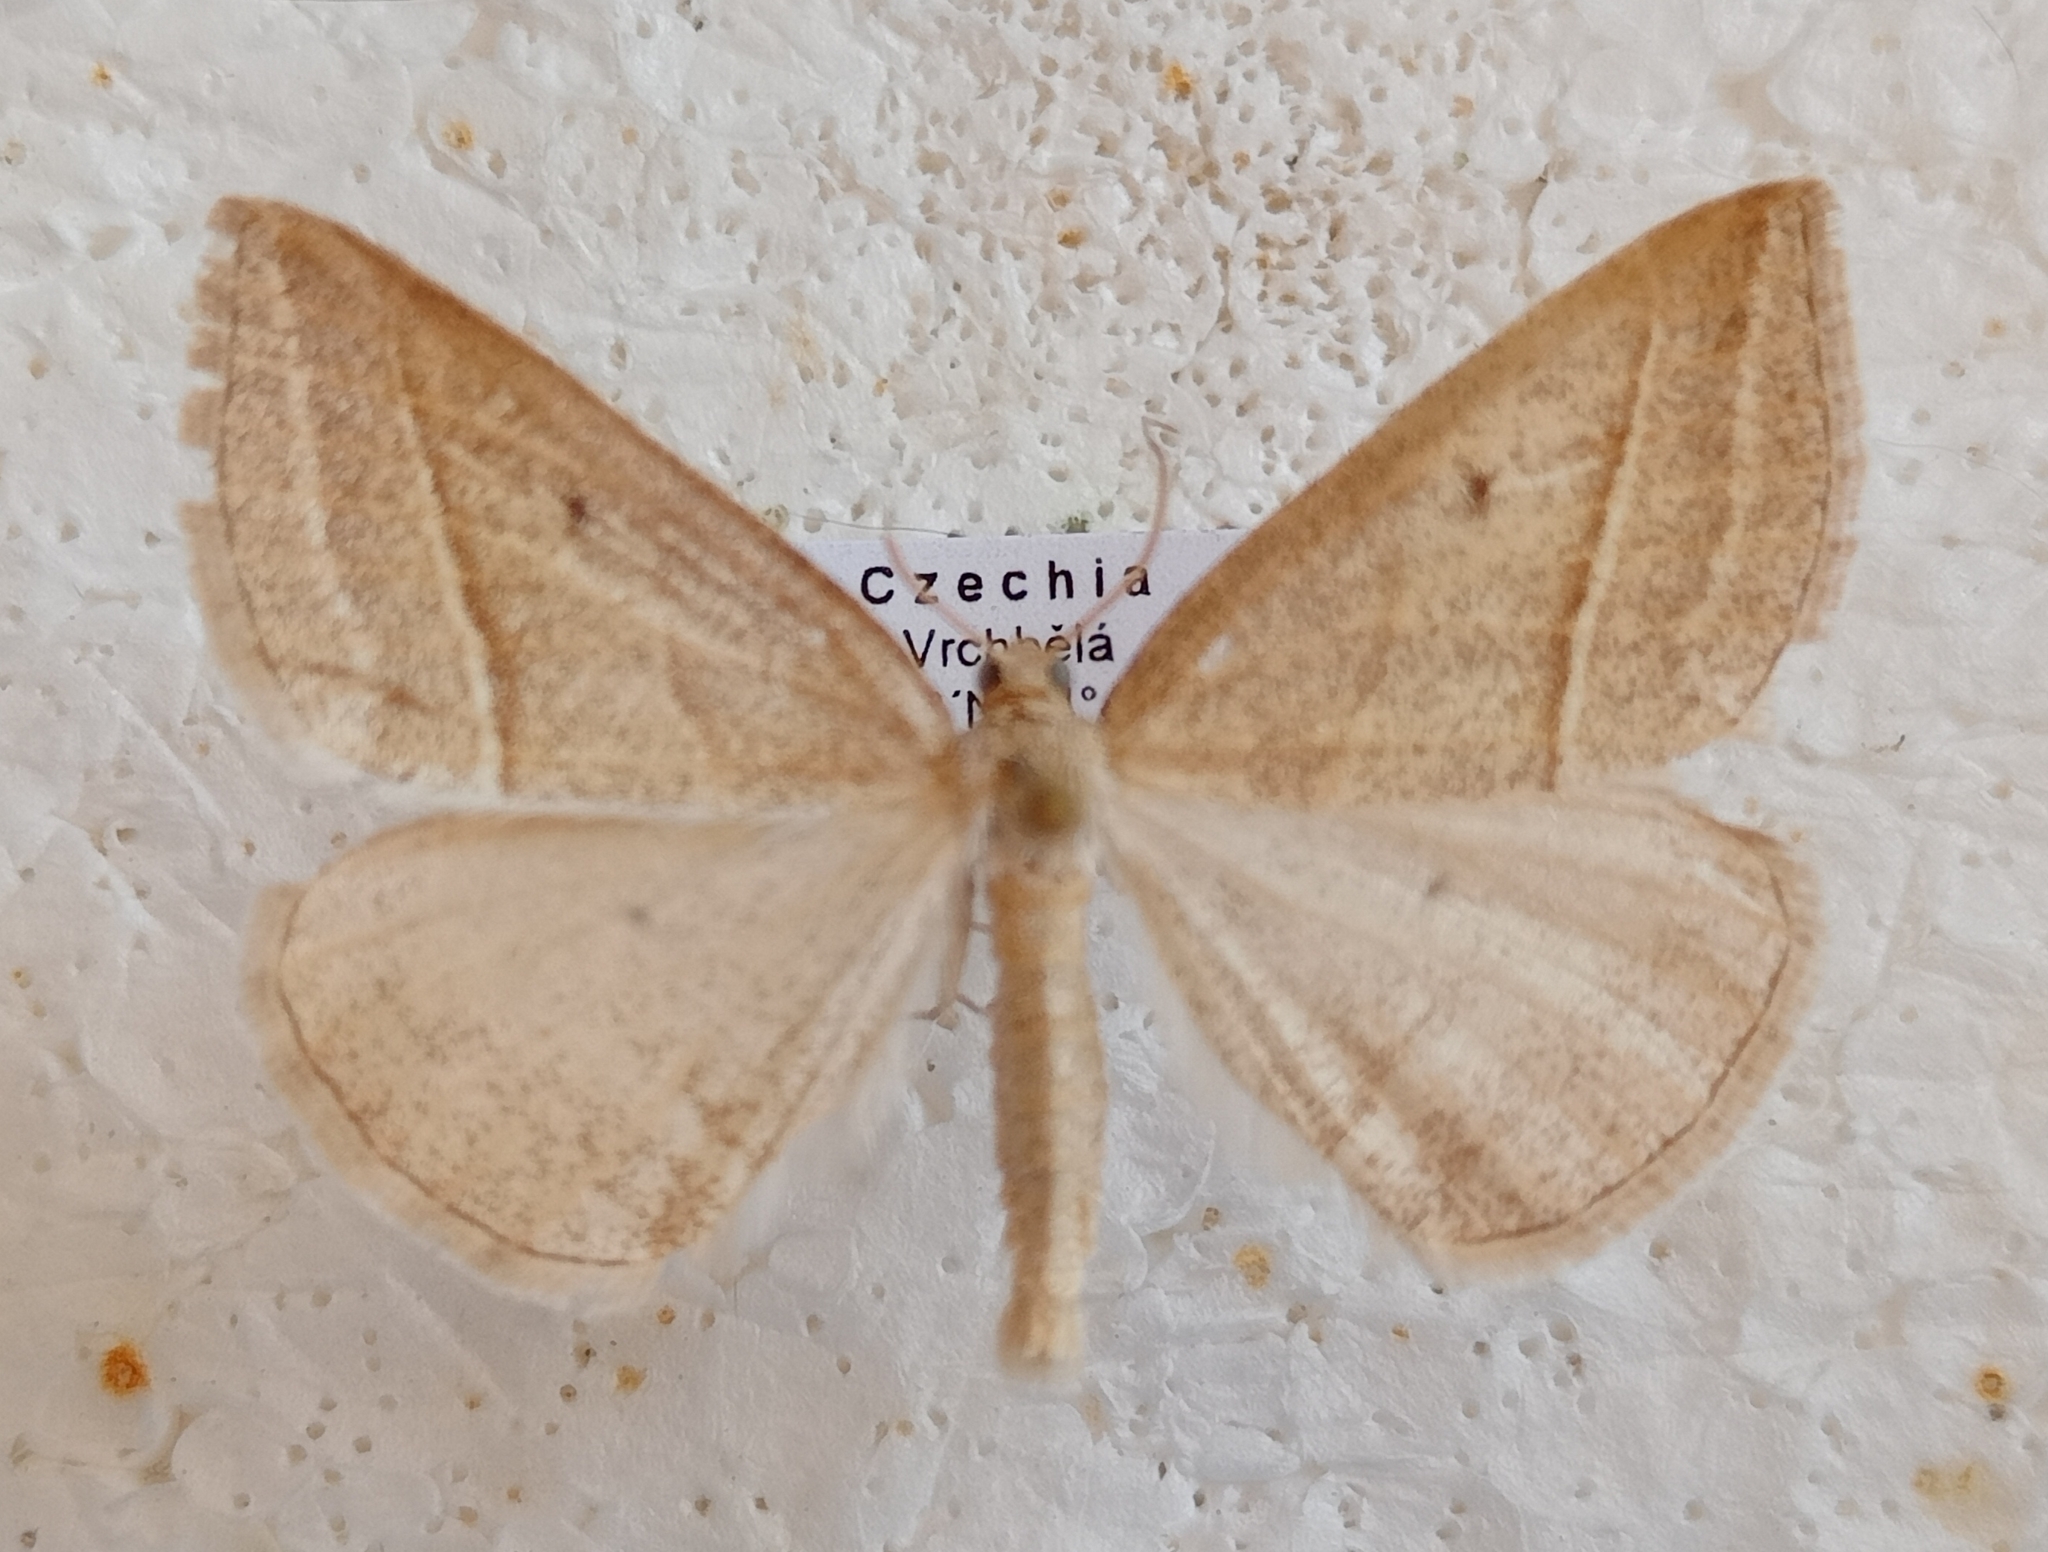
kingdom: Animalia
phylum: Arthropoda
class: Insecta
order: Lepidoptera
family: Pterophoridae
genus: Pterophorus
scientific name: Pterophorus Petrophora chlorosata
